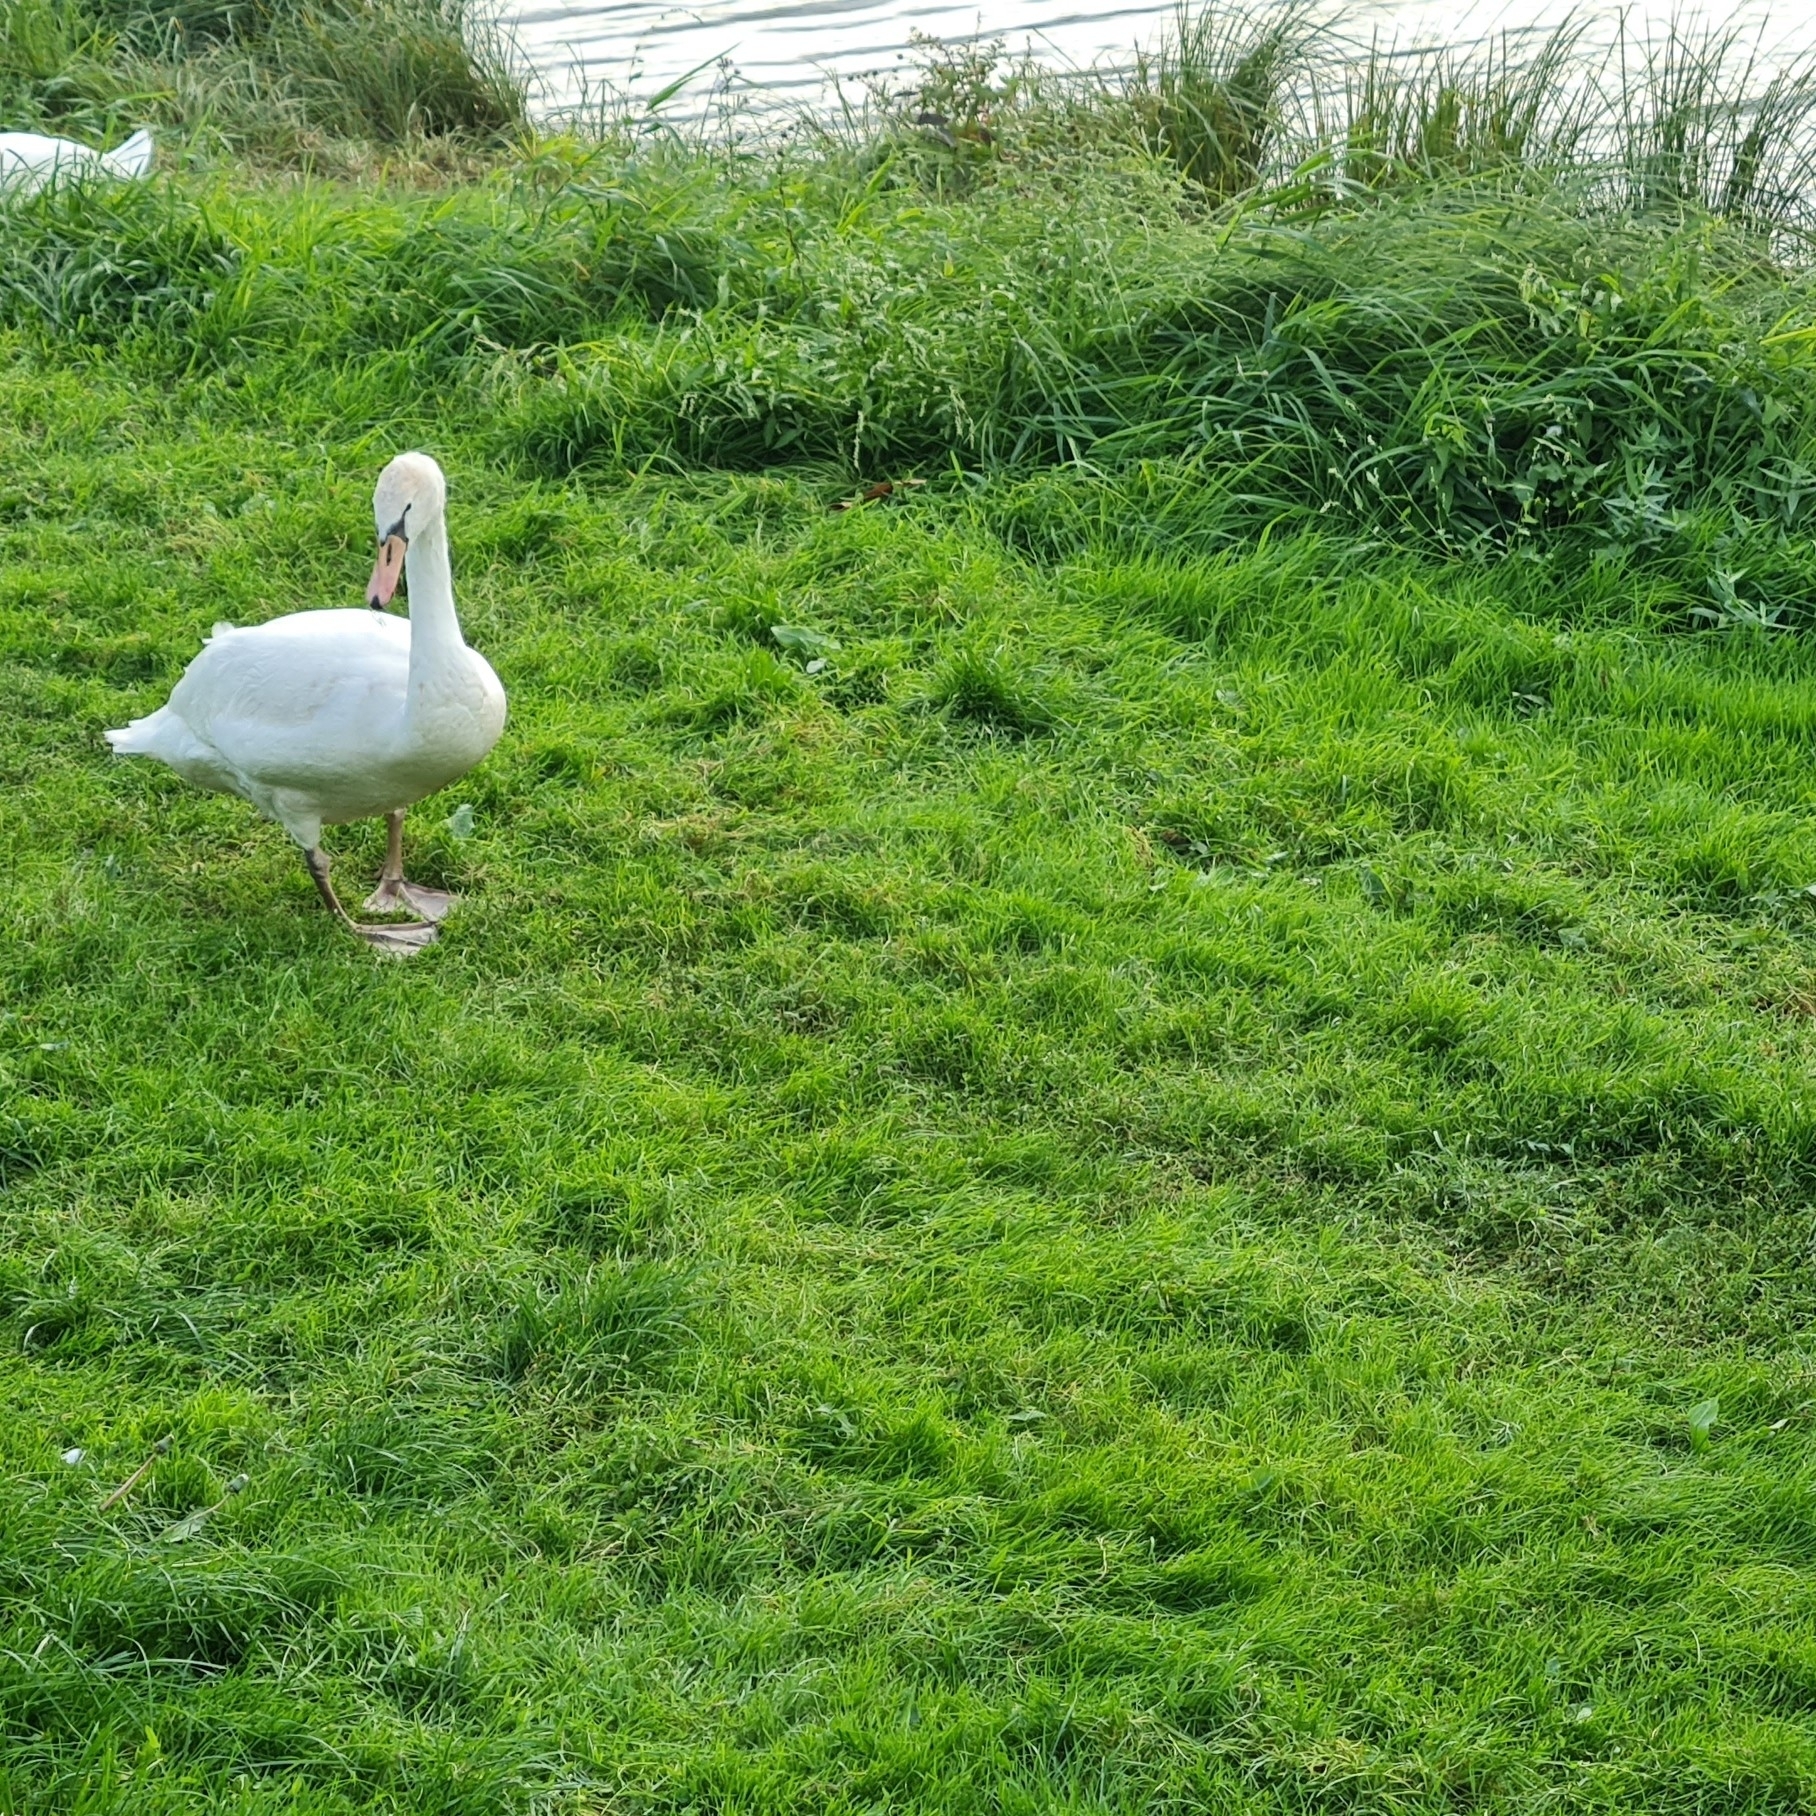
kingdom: Animalia
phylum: Chordata
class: Aves
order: Anseriformes
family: Anatidae
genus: Cygnus
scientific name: Cygnus olor
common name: Mute swan
